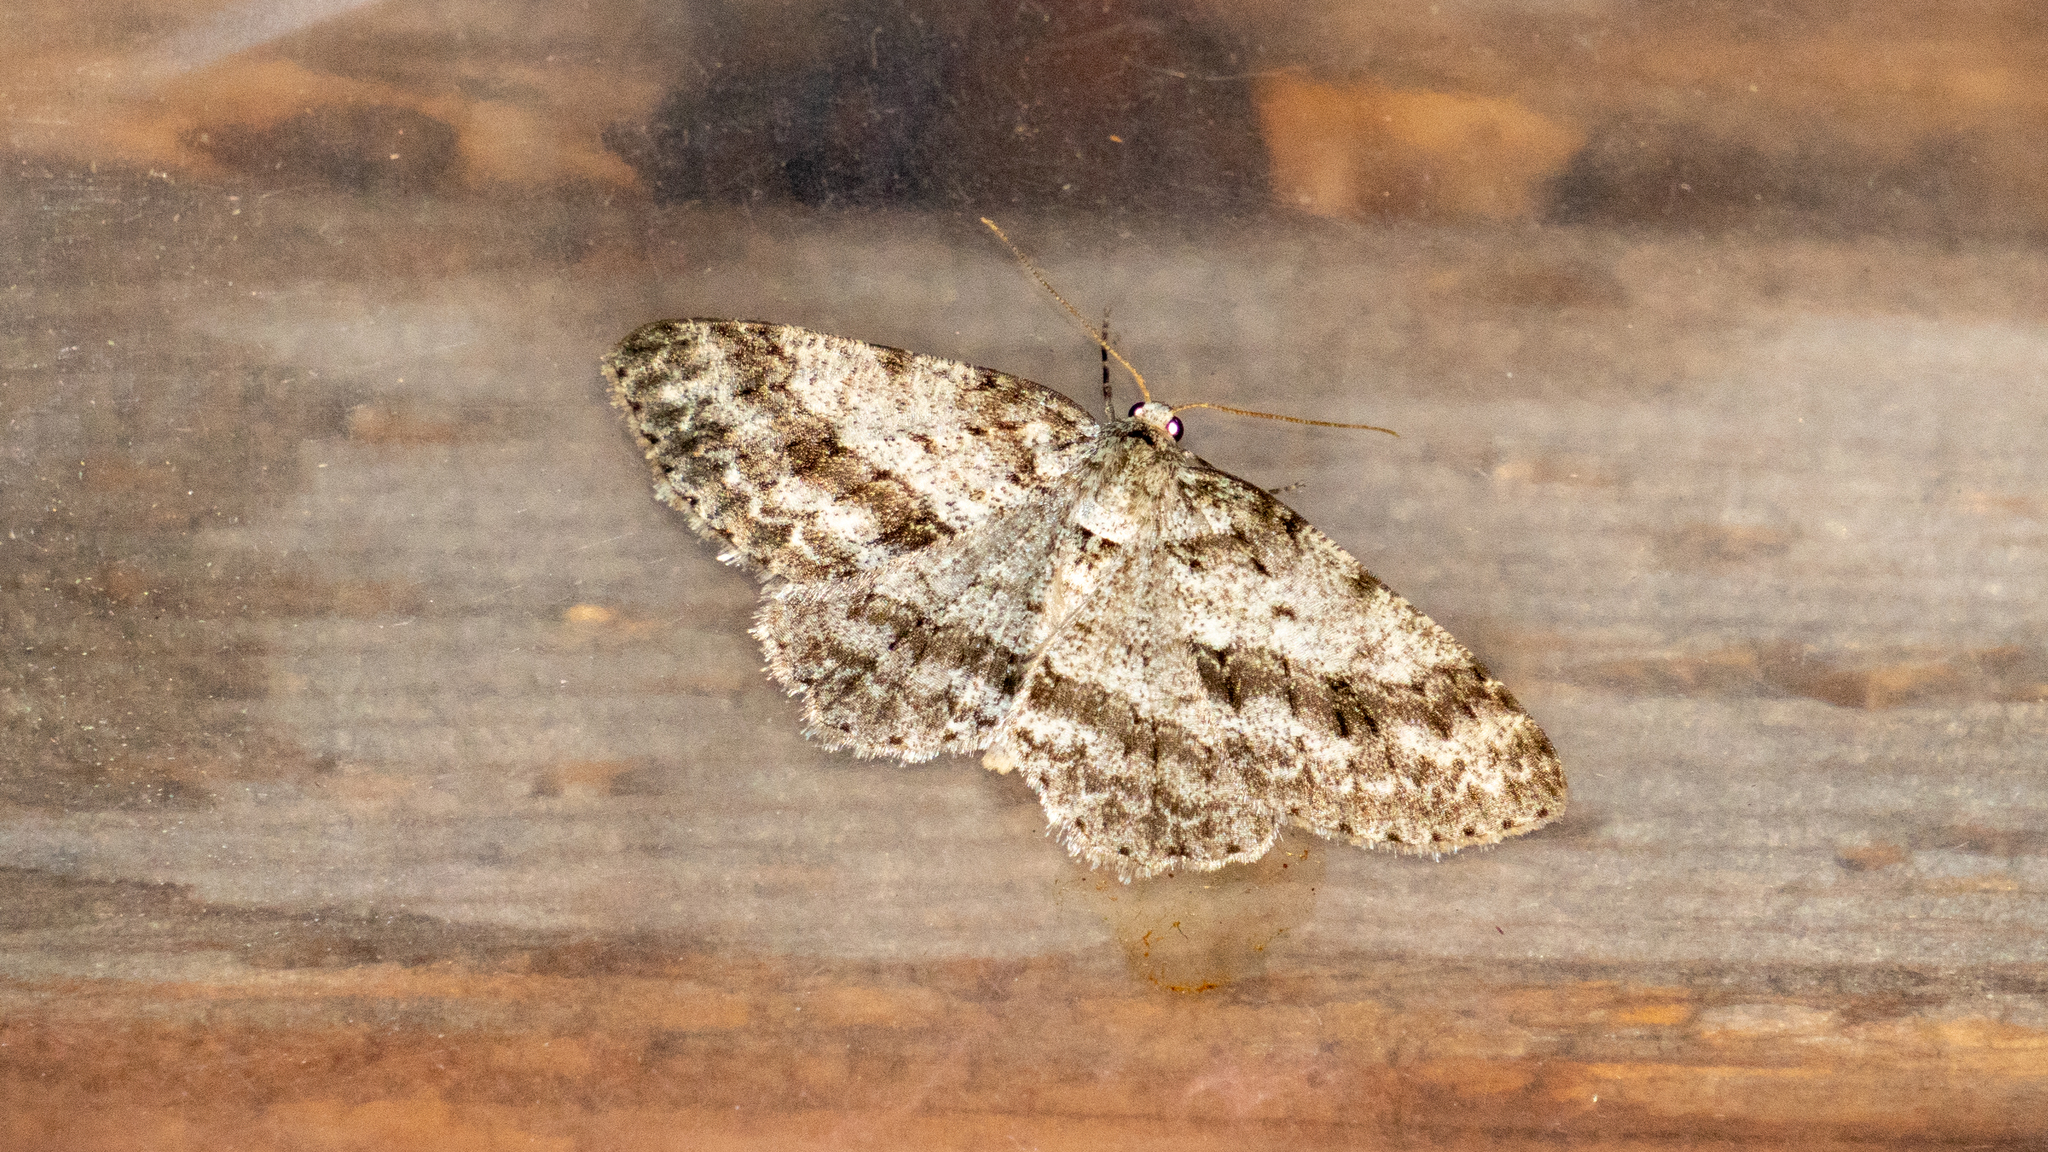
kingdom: Animalia
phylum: Arthropoda
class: Insecta
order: Lepidoptera
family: Geometridae
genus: Ectropis
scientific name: Ectropis crepuscularia
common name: Engrailed
